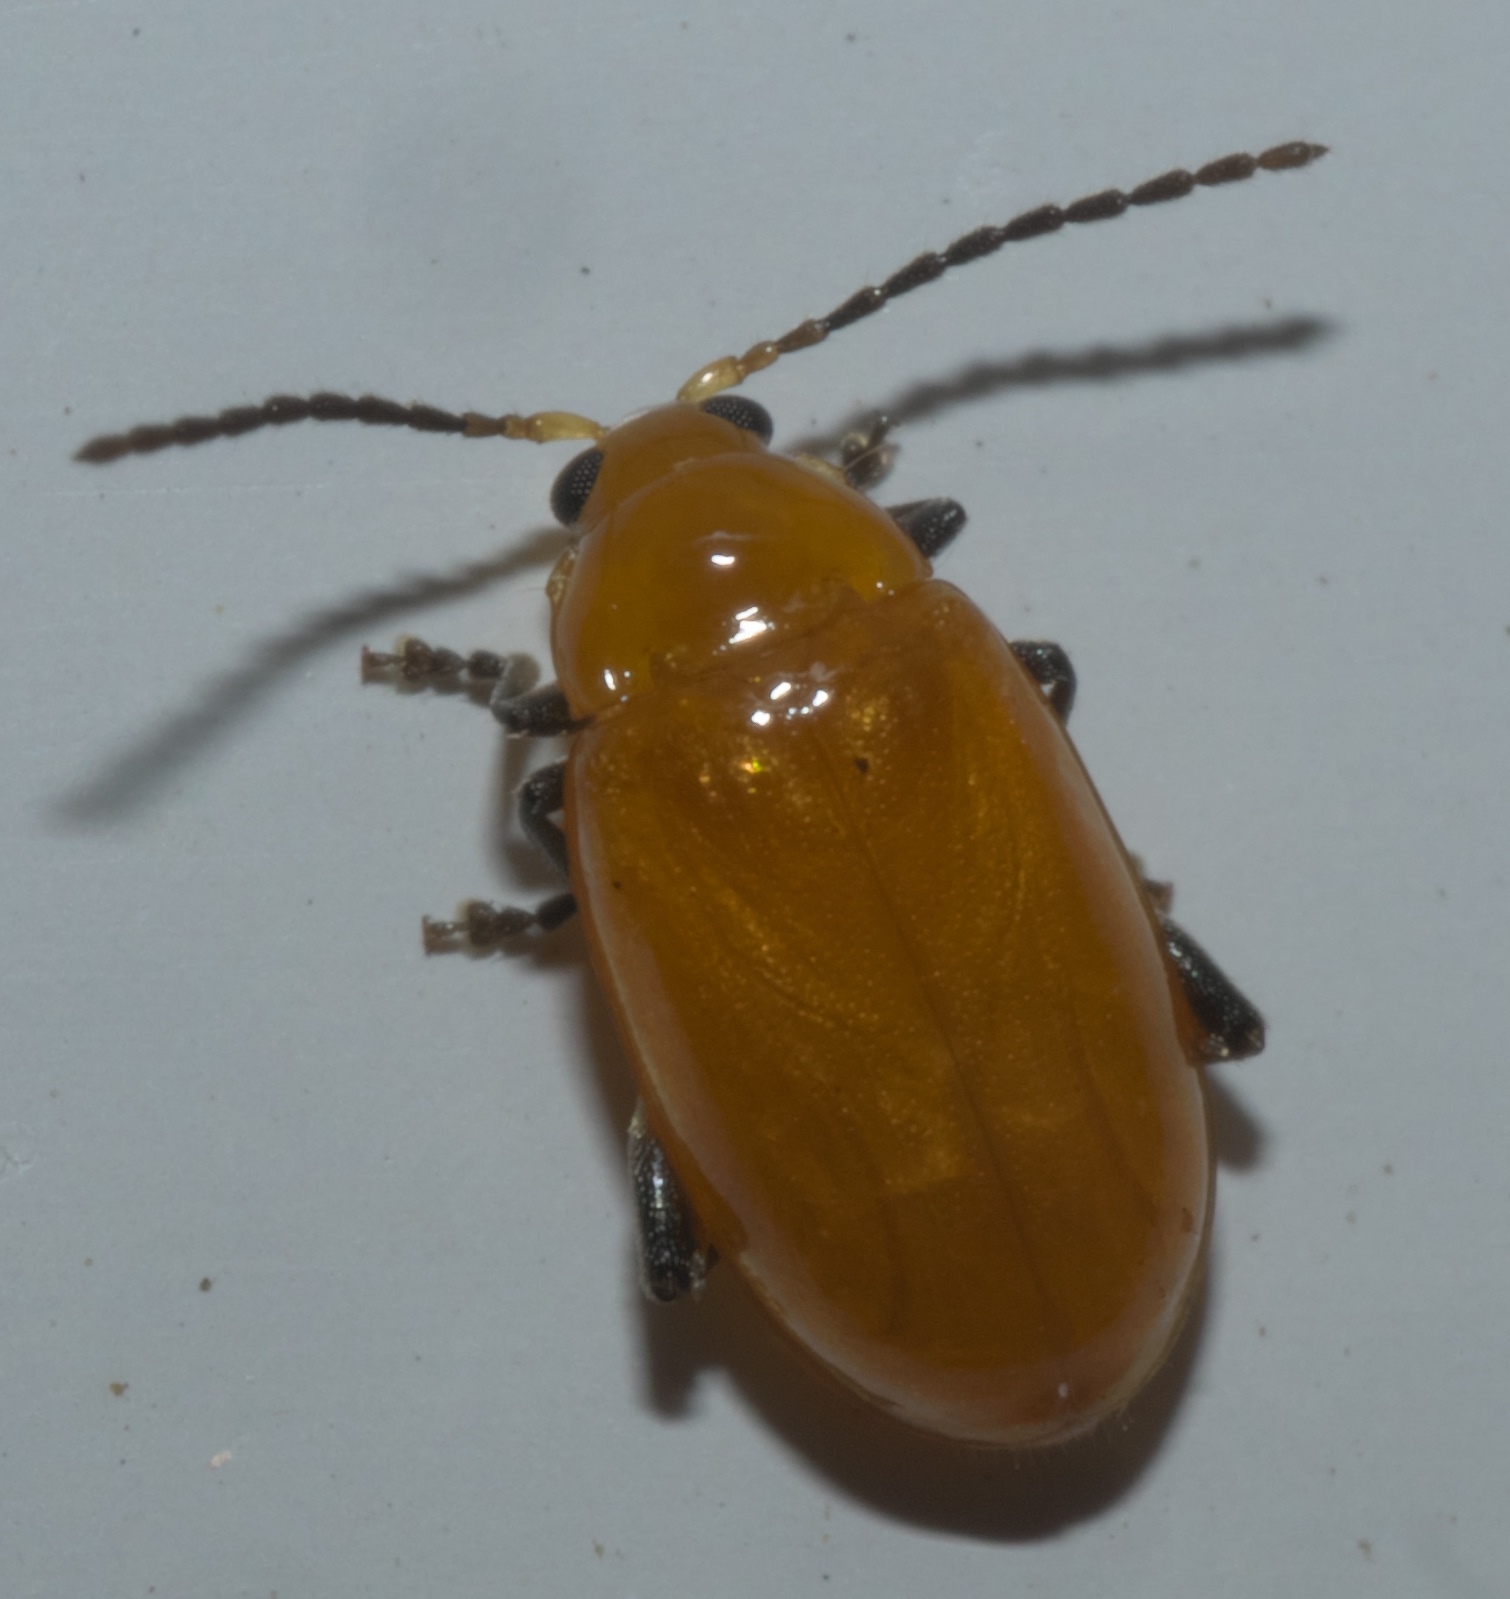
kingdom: Animalia
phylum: Arthropoda
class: Insecta
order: Coleoptera
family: Chrysomelidae
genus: Parchicola
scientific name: Parchicola tibialis
